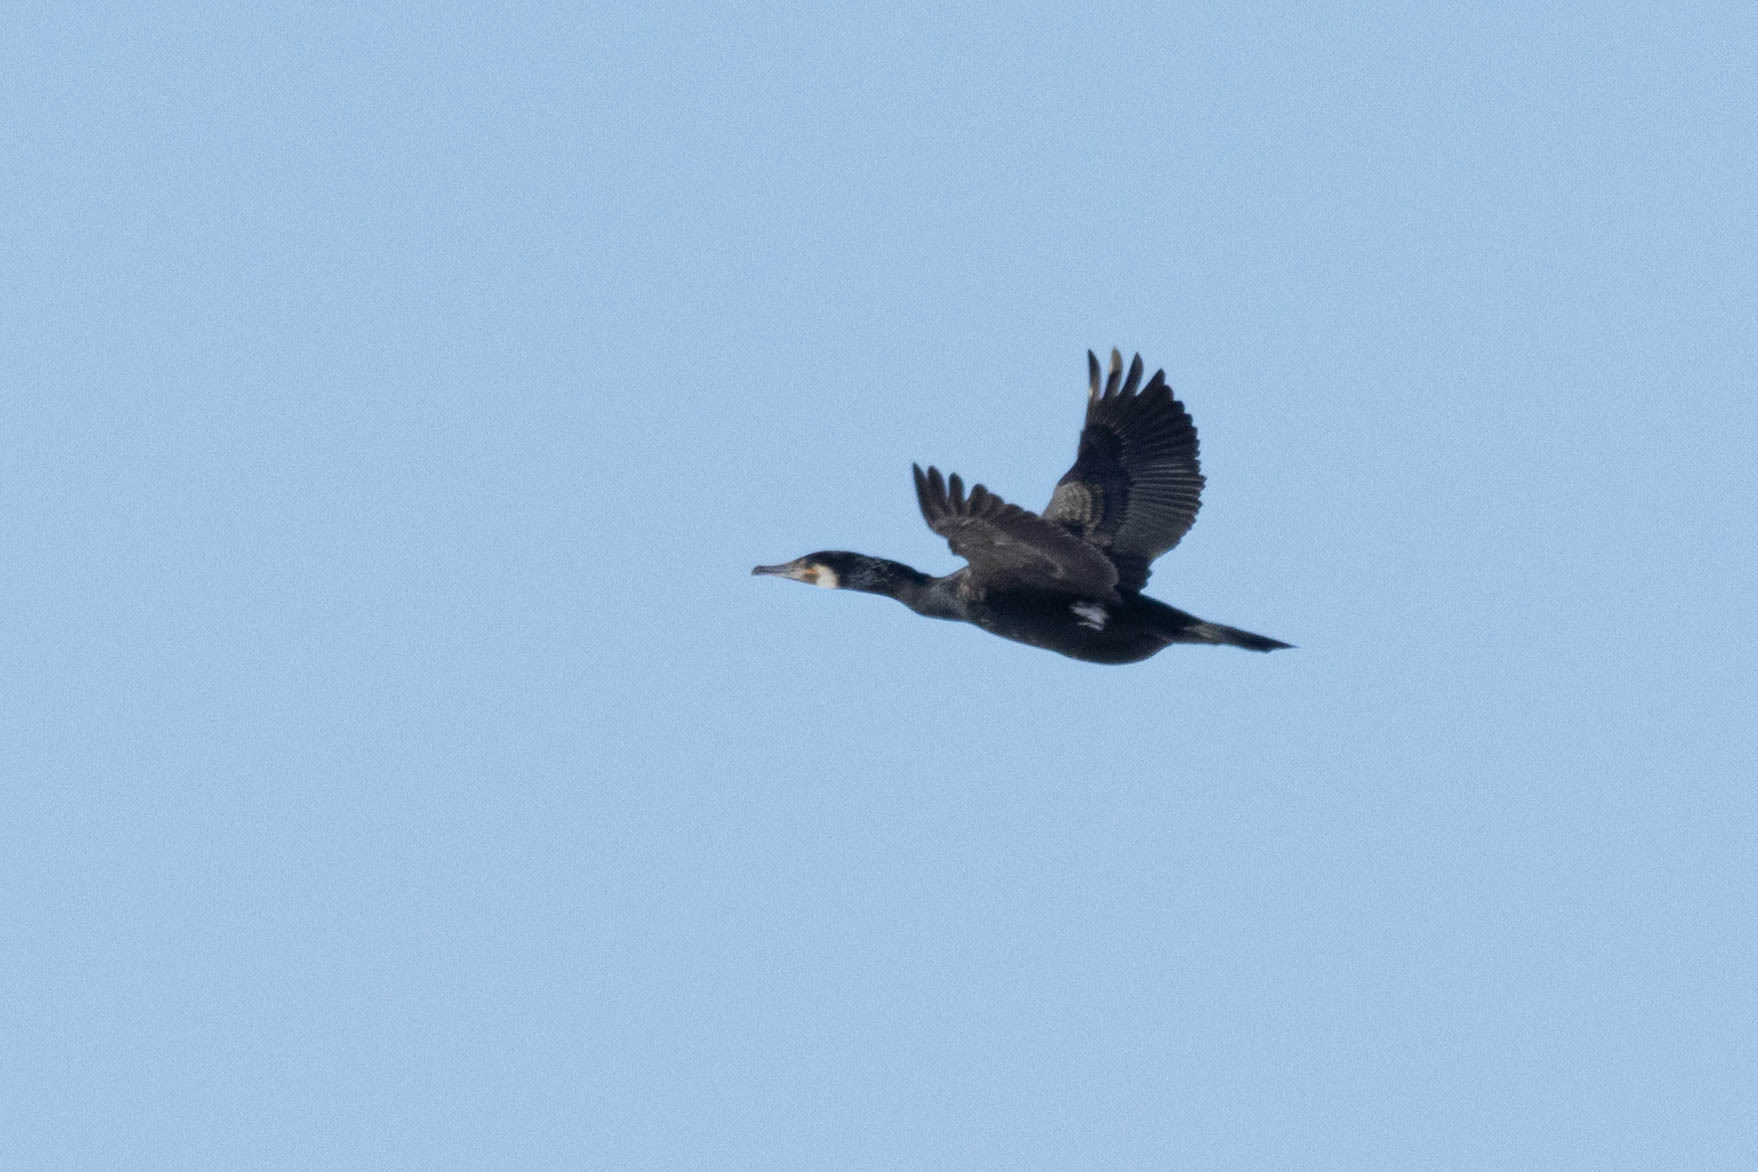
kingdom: Animalia
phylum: Chordata
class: Aves
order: Suliformes
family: Phalacrocoracidae
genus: Phalacrocorax
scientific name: Phalacrocorax carbo
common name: Great cormorant
